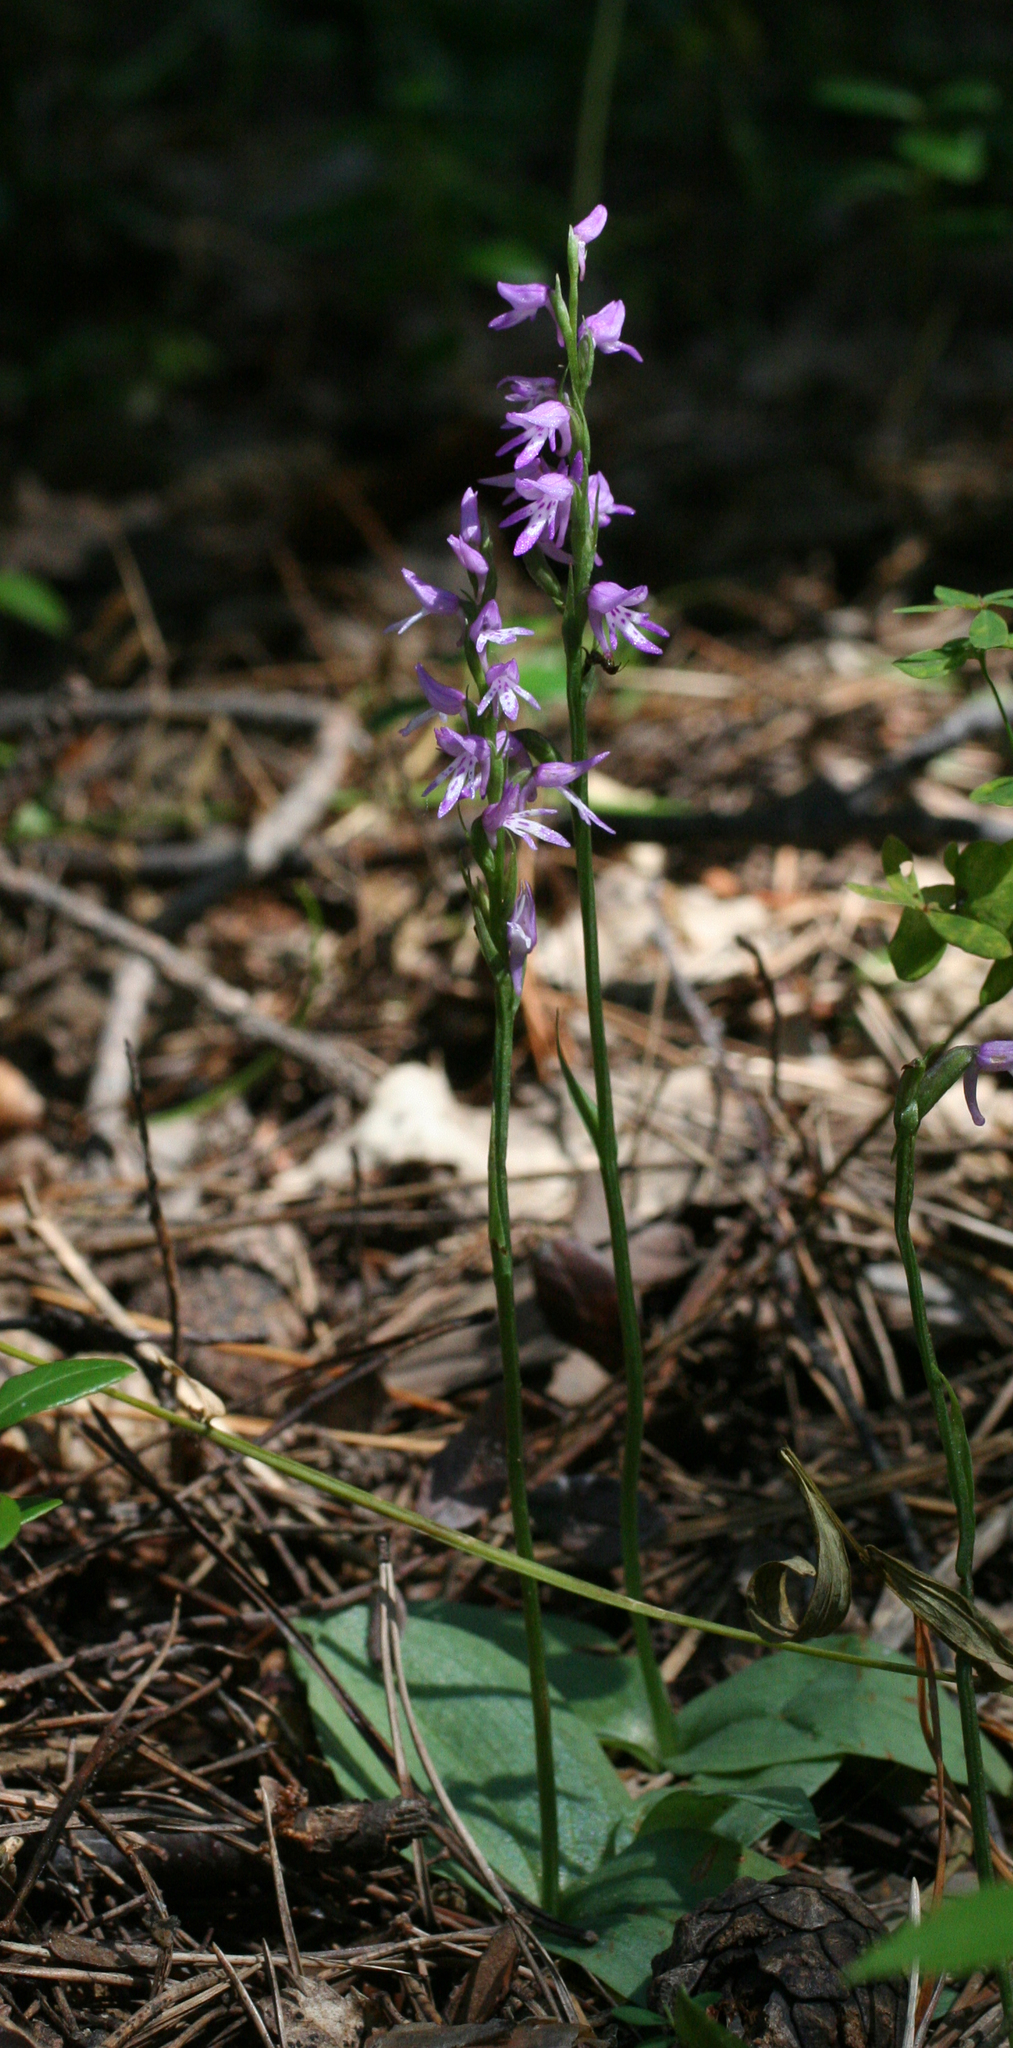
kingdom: Plantae
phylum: Tracheophyta
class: Liliopsida
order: Asparagales
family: Orchidaceae
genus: Hemipilia
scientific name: Hemipilia cucullata
